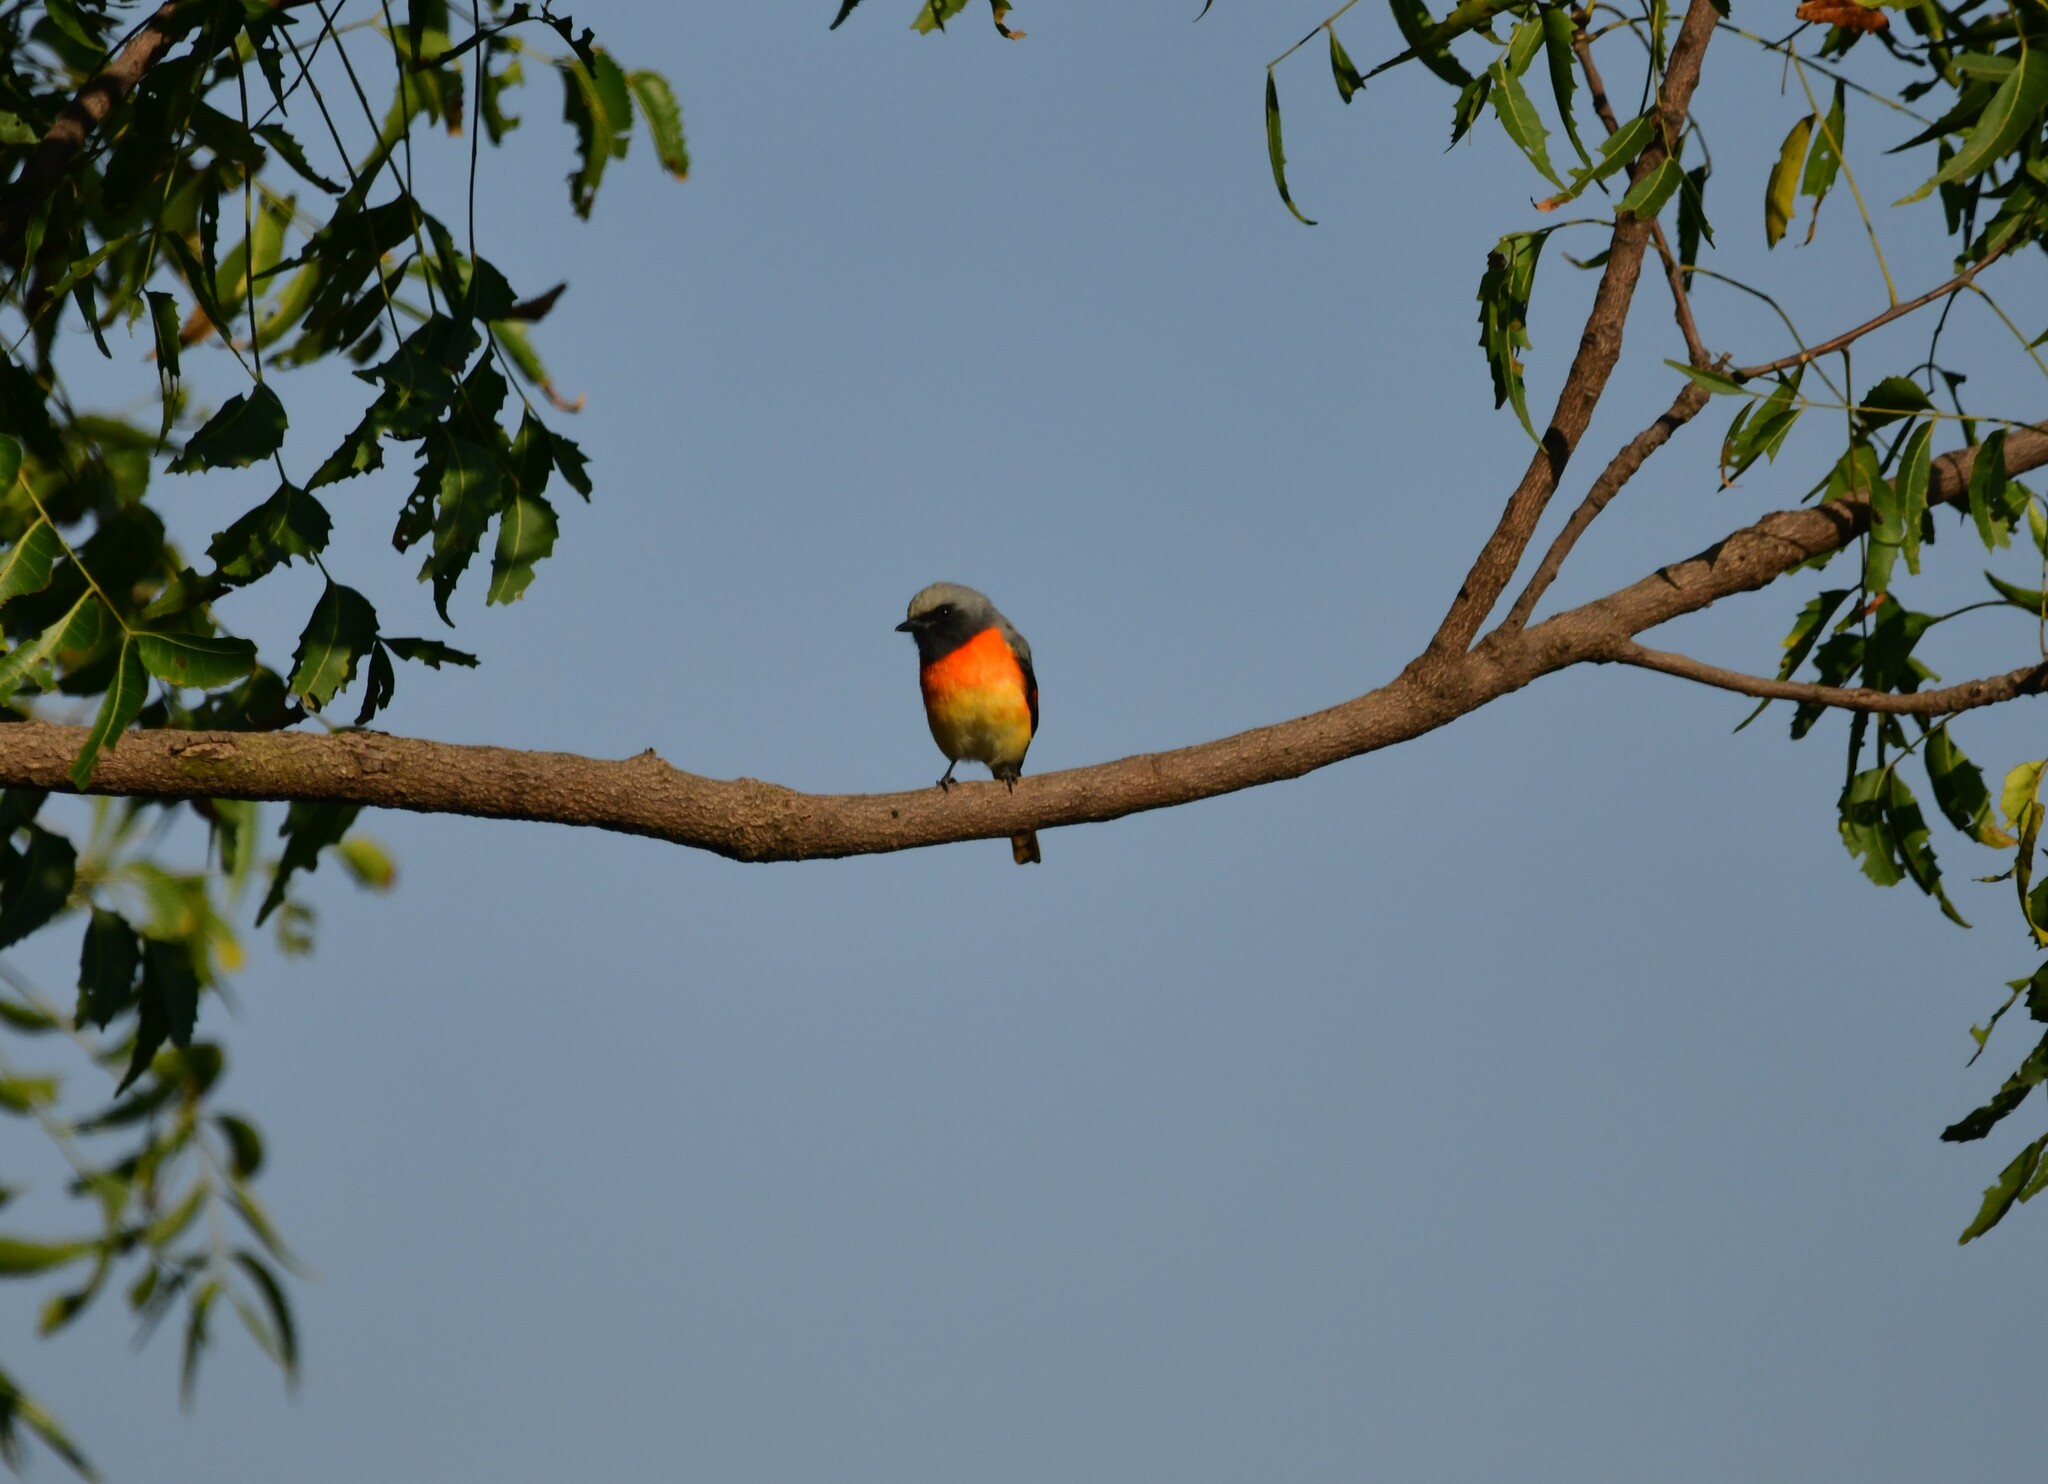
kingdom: Animalia
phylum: Chordata
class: Aves
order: Passeriformes
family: Campephagidae
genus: Pericrocotus
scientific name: Pericrocotus cinnamomeus
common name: Small minivet
